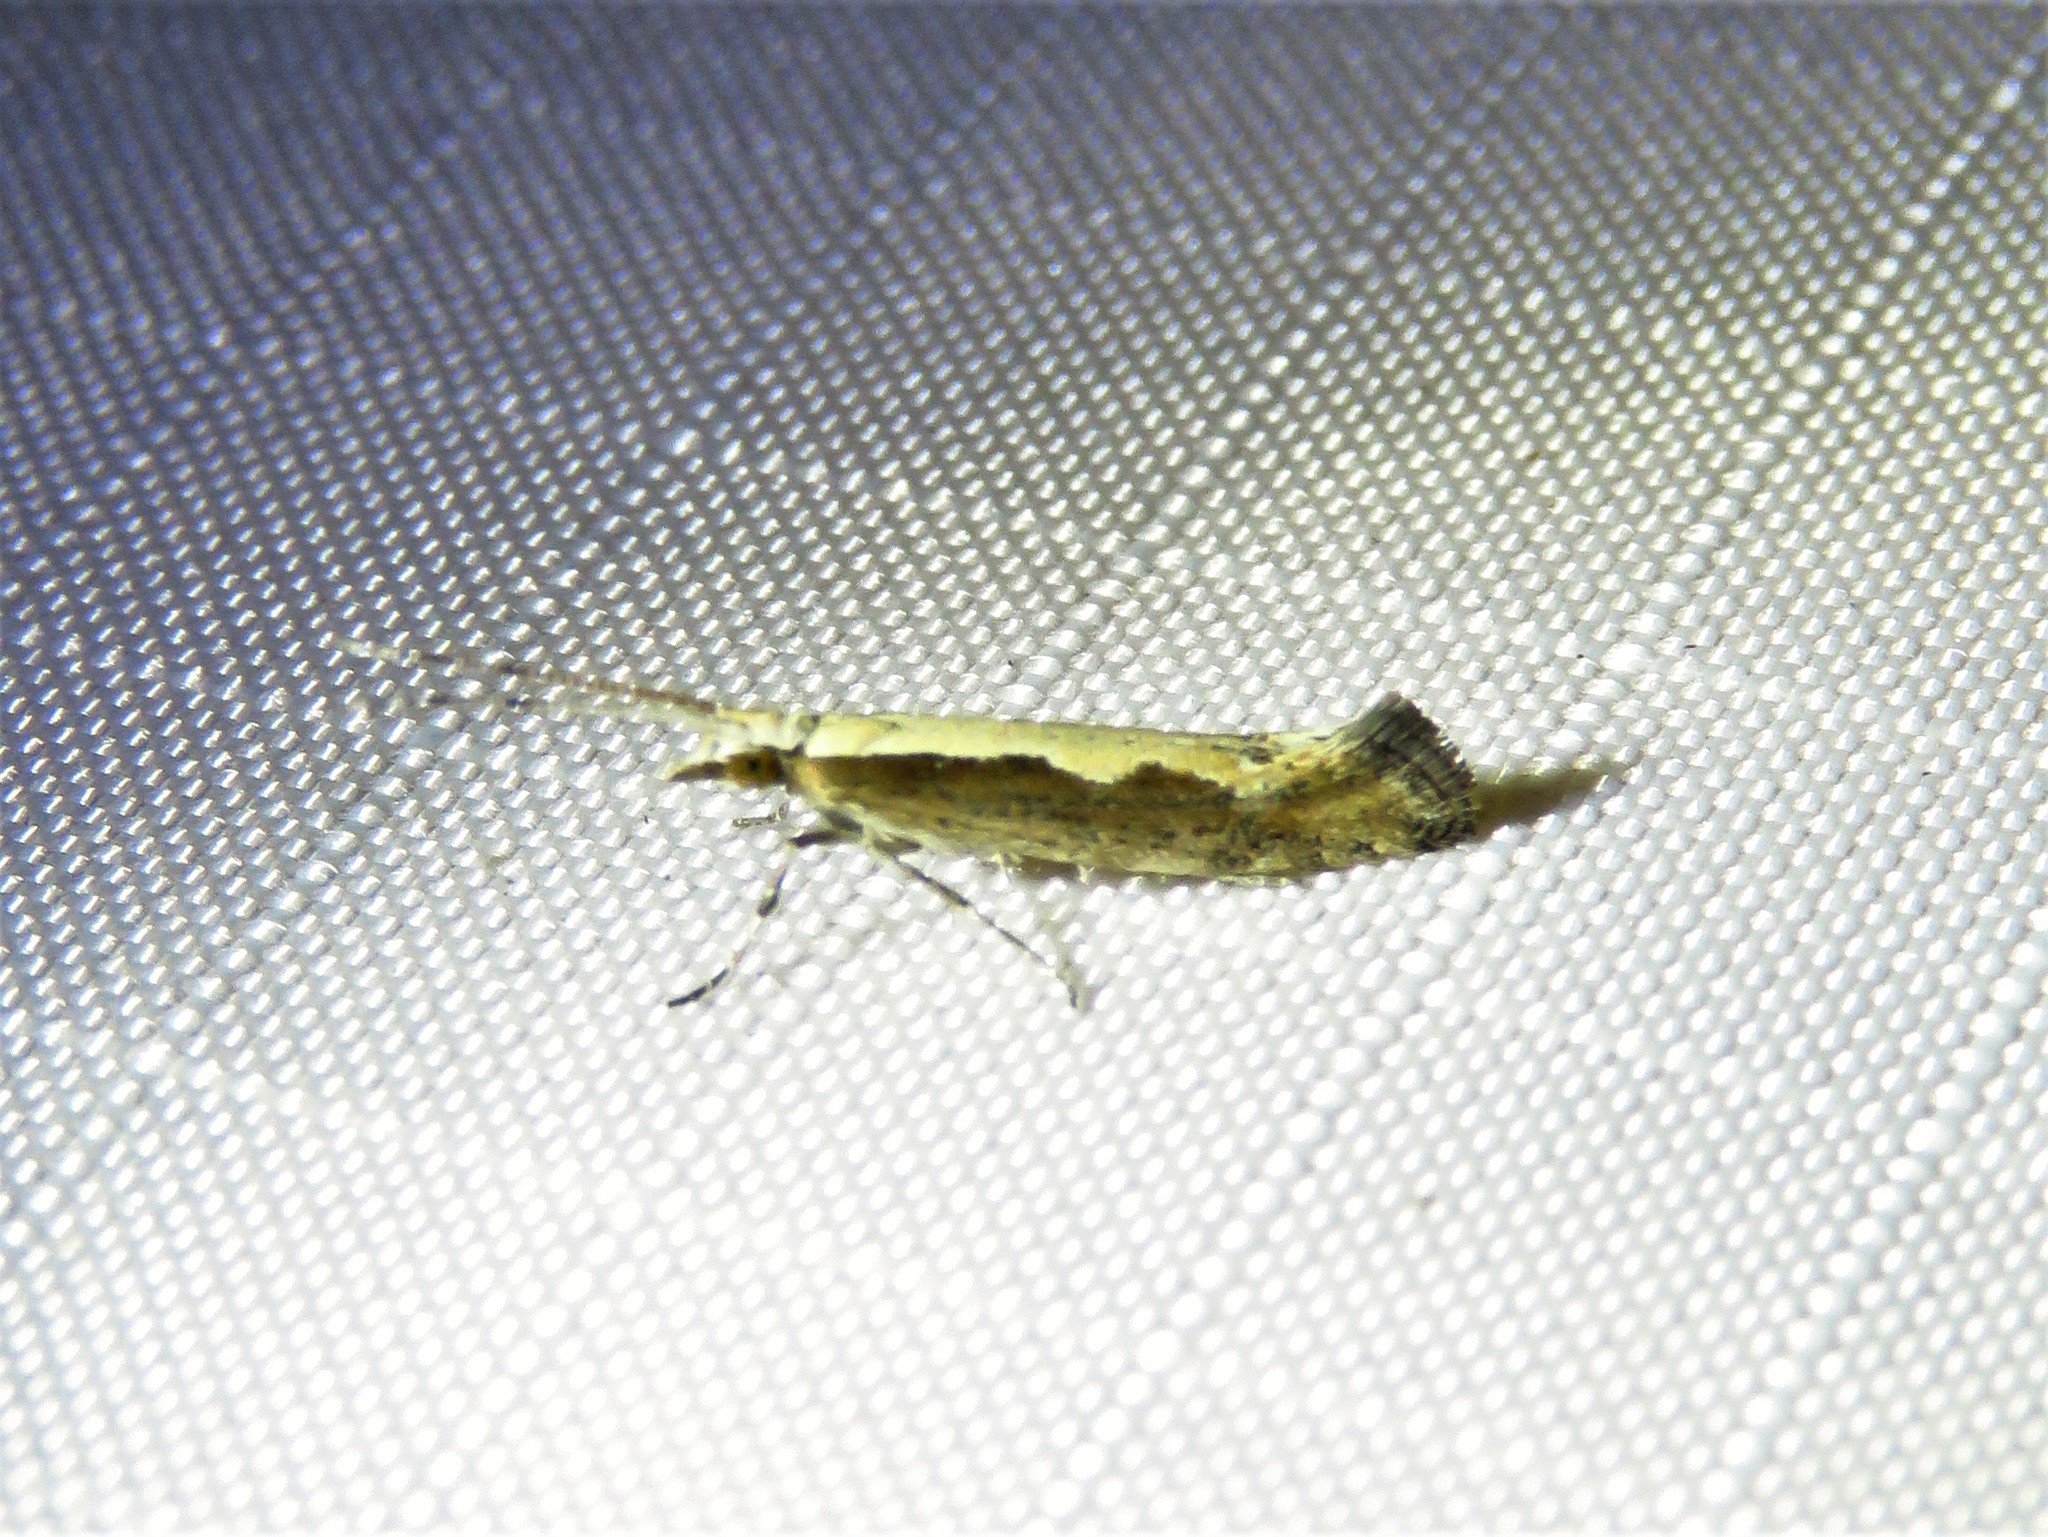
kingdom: Animalia
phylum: Arthropoda
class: Insecta
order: Lepidoptera
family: Plutellidae
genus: Plutella
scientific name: Plutella xylostella
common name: Diamond-back moth
